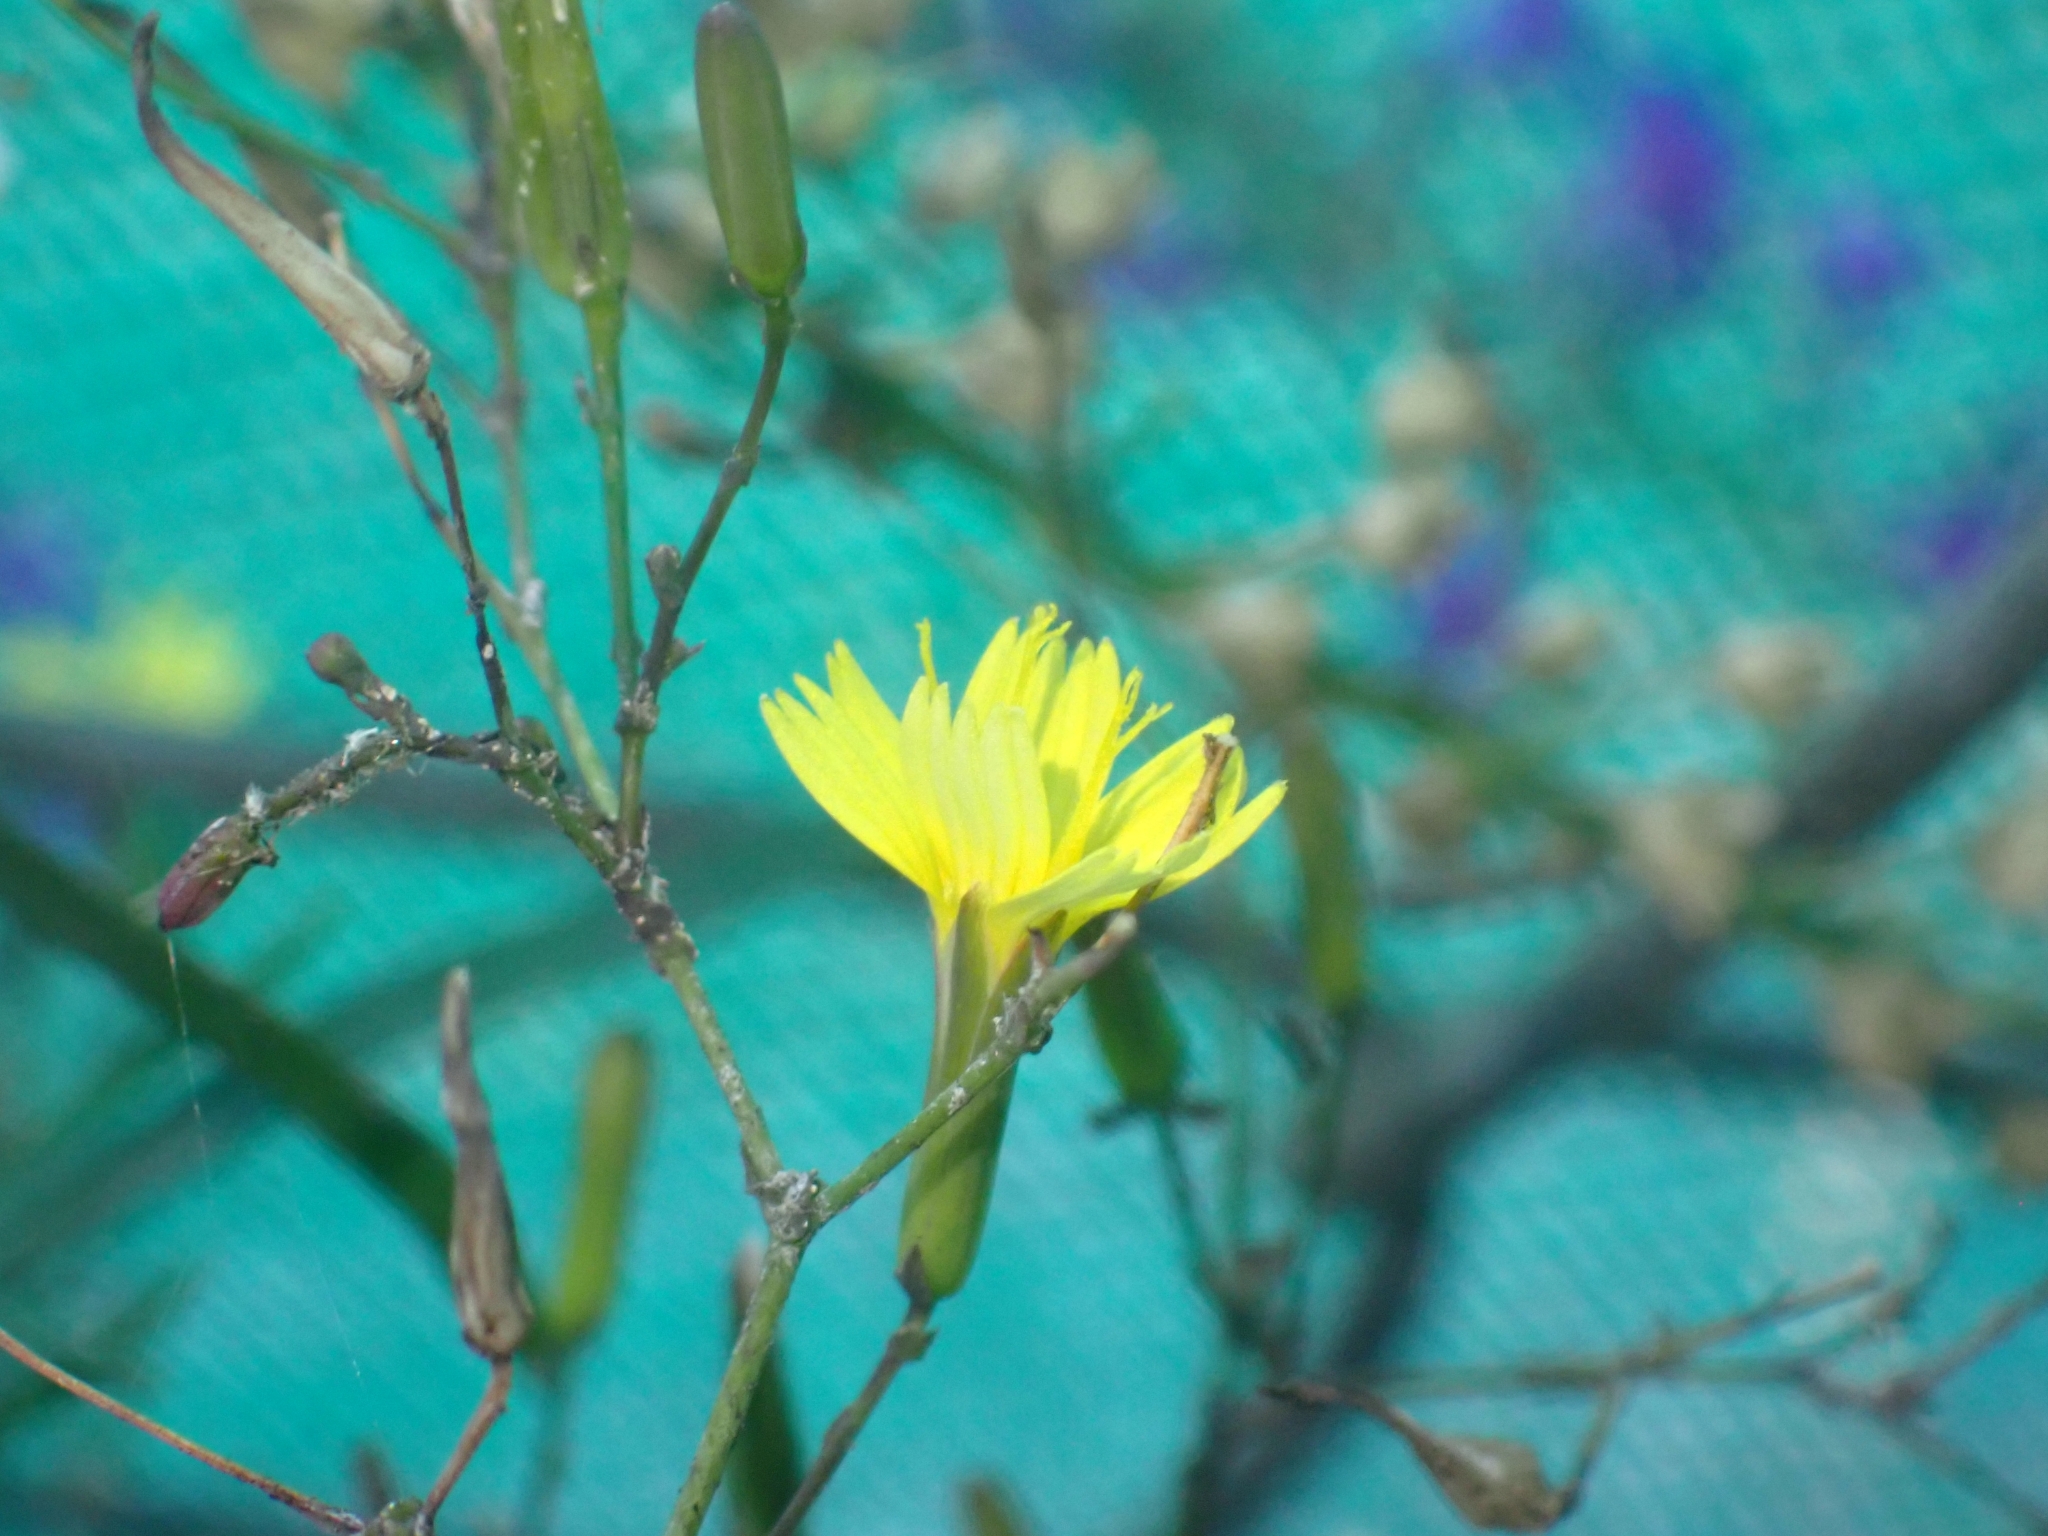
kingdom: Plantae
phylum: Tracheophyta
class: Magnoliopsida
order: Asterales
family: Asteraceae
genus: Mycelis
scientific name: Mycelis muralis
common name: Wall lettuce
